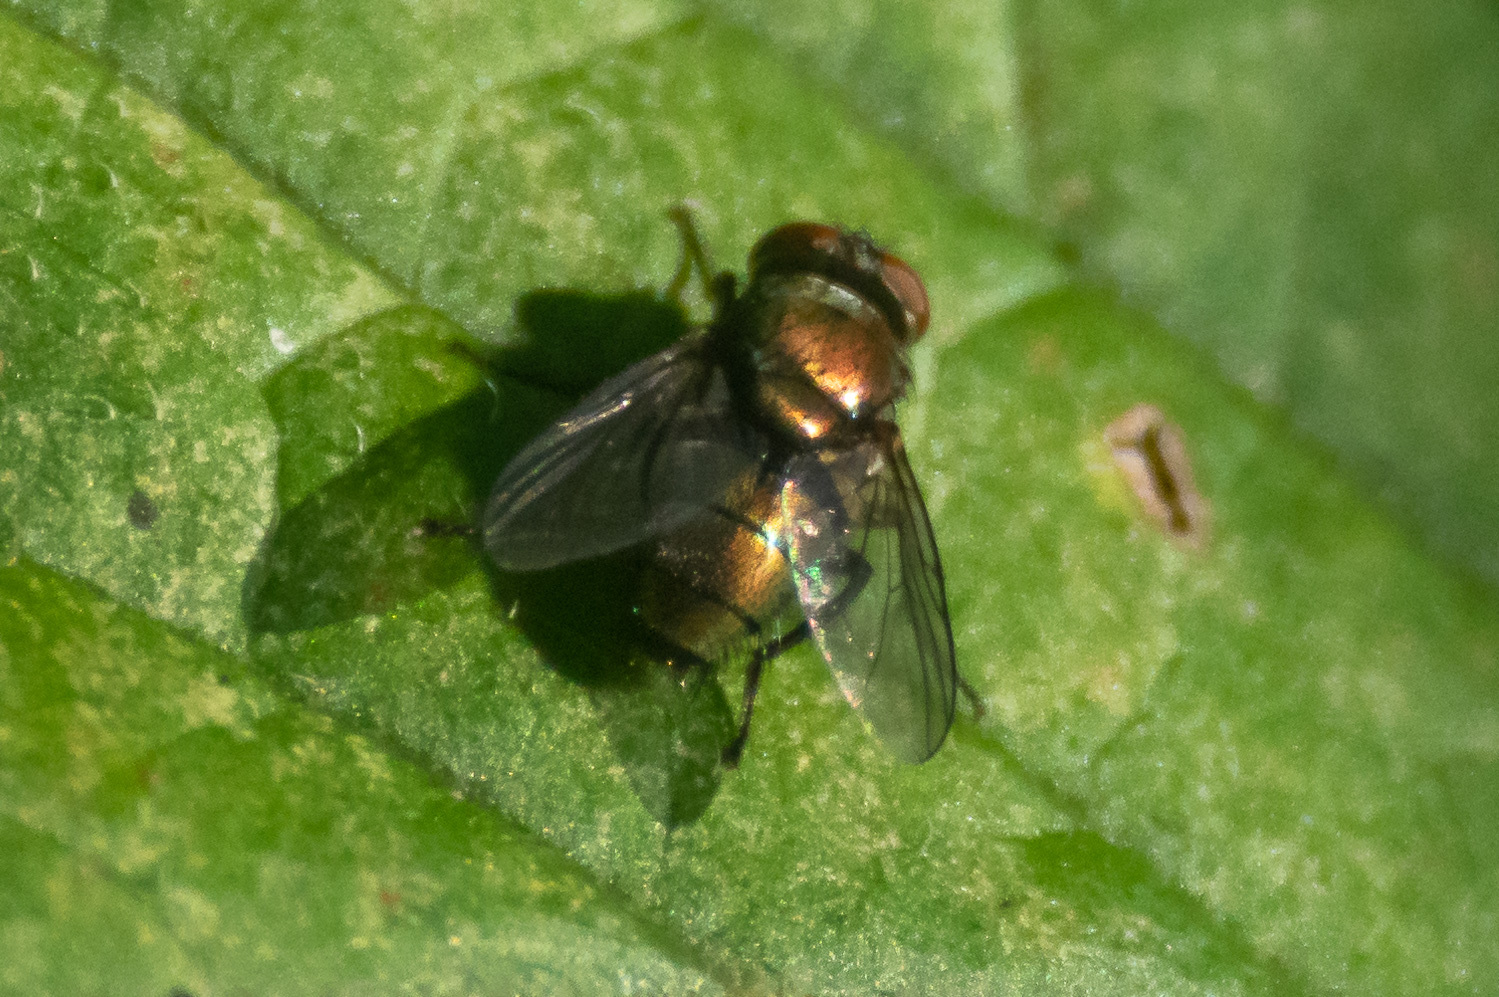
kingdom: Animalia
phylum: Arthropoda
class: Insecta
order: Diptera
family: Calliphoridae
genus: Lucilia
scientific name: Lucilia cuprina
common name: Sheep blow fly
